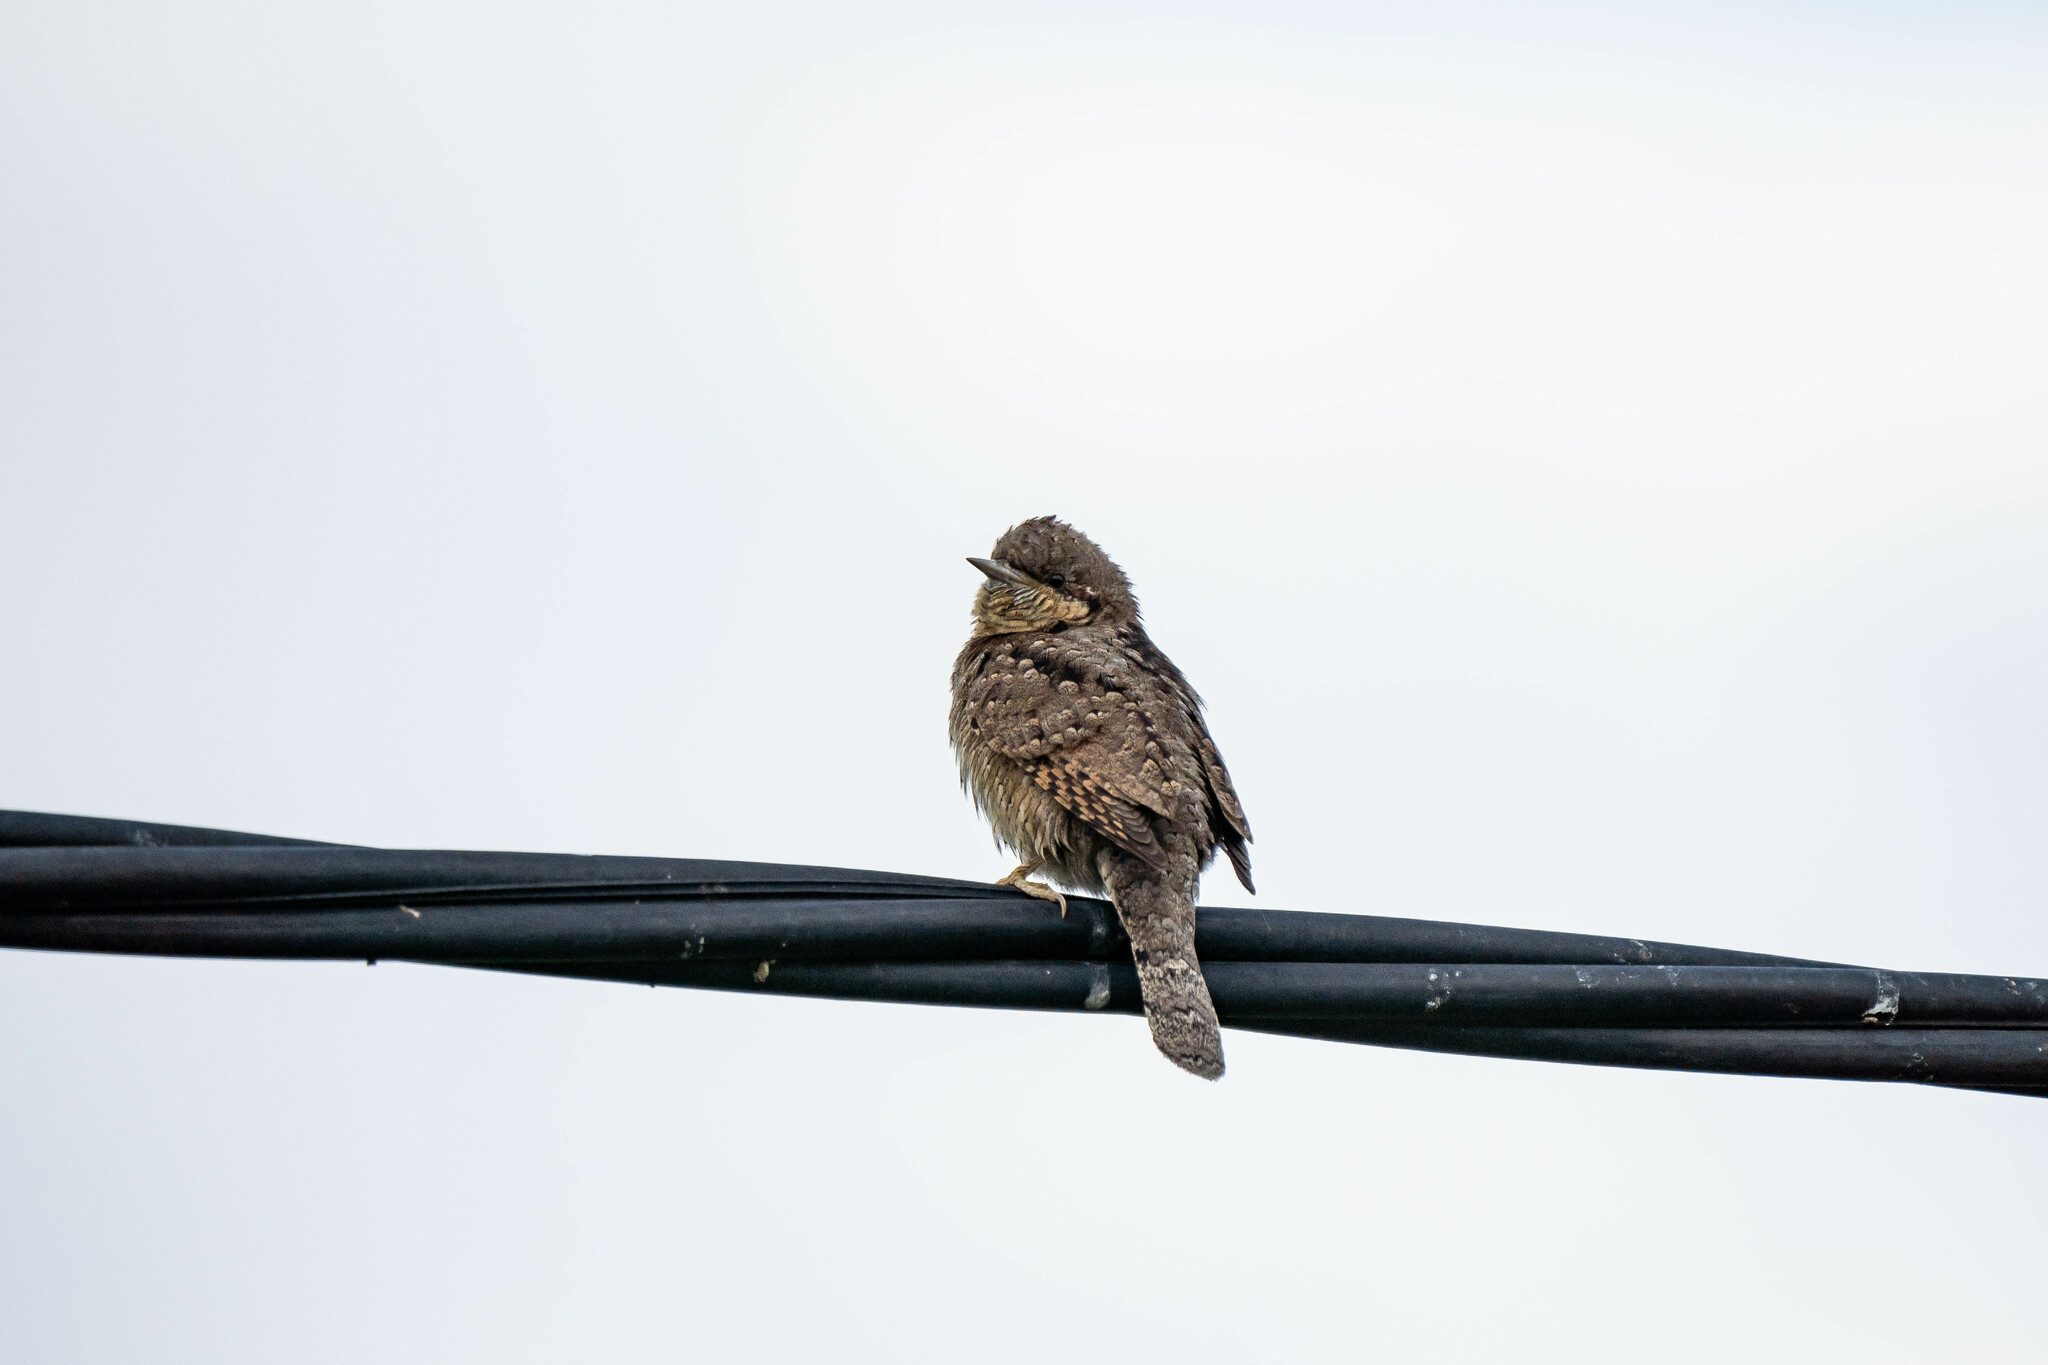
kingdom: Animalia
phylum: Chordata
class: Aves
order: Piciformes
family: Picidae
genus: Jynx
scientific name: Jynx torquilla
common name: Eurasian wryneck
